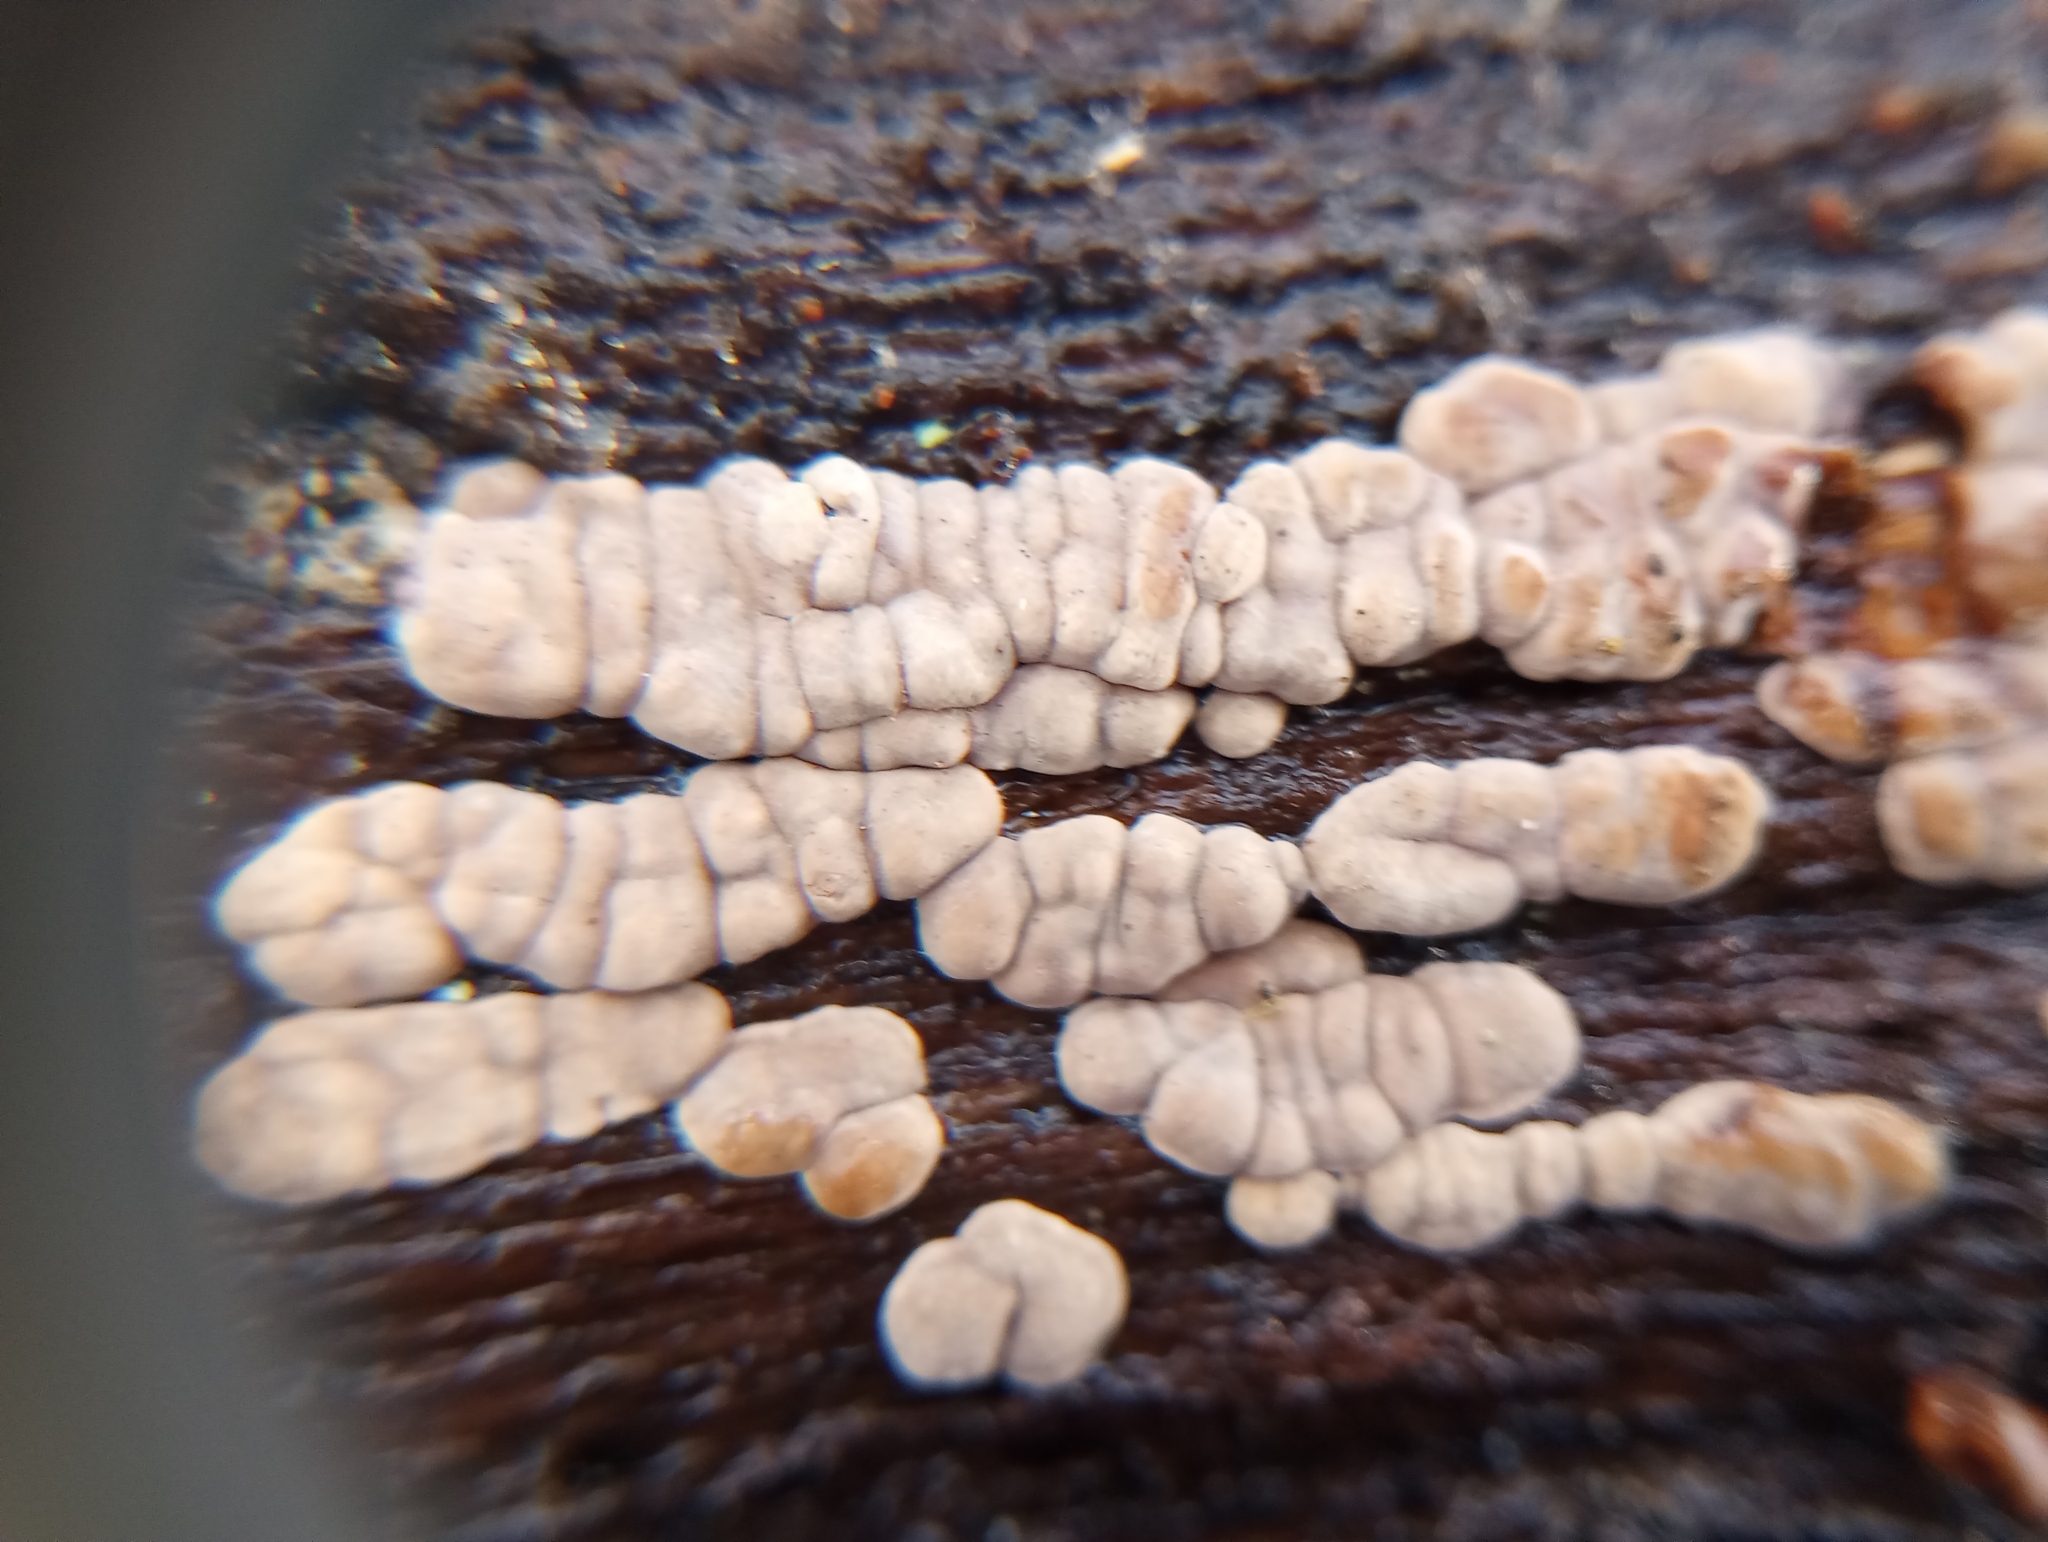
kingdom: Fungi
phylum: Basidiomycota
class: Agaricomycetes
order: Russulales
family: Stereaceae
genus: Xylobolus
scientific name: Xylobolus frustulatus
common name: Ceramic parchment
